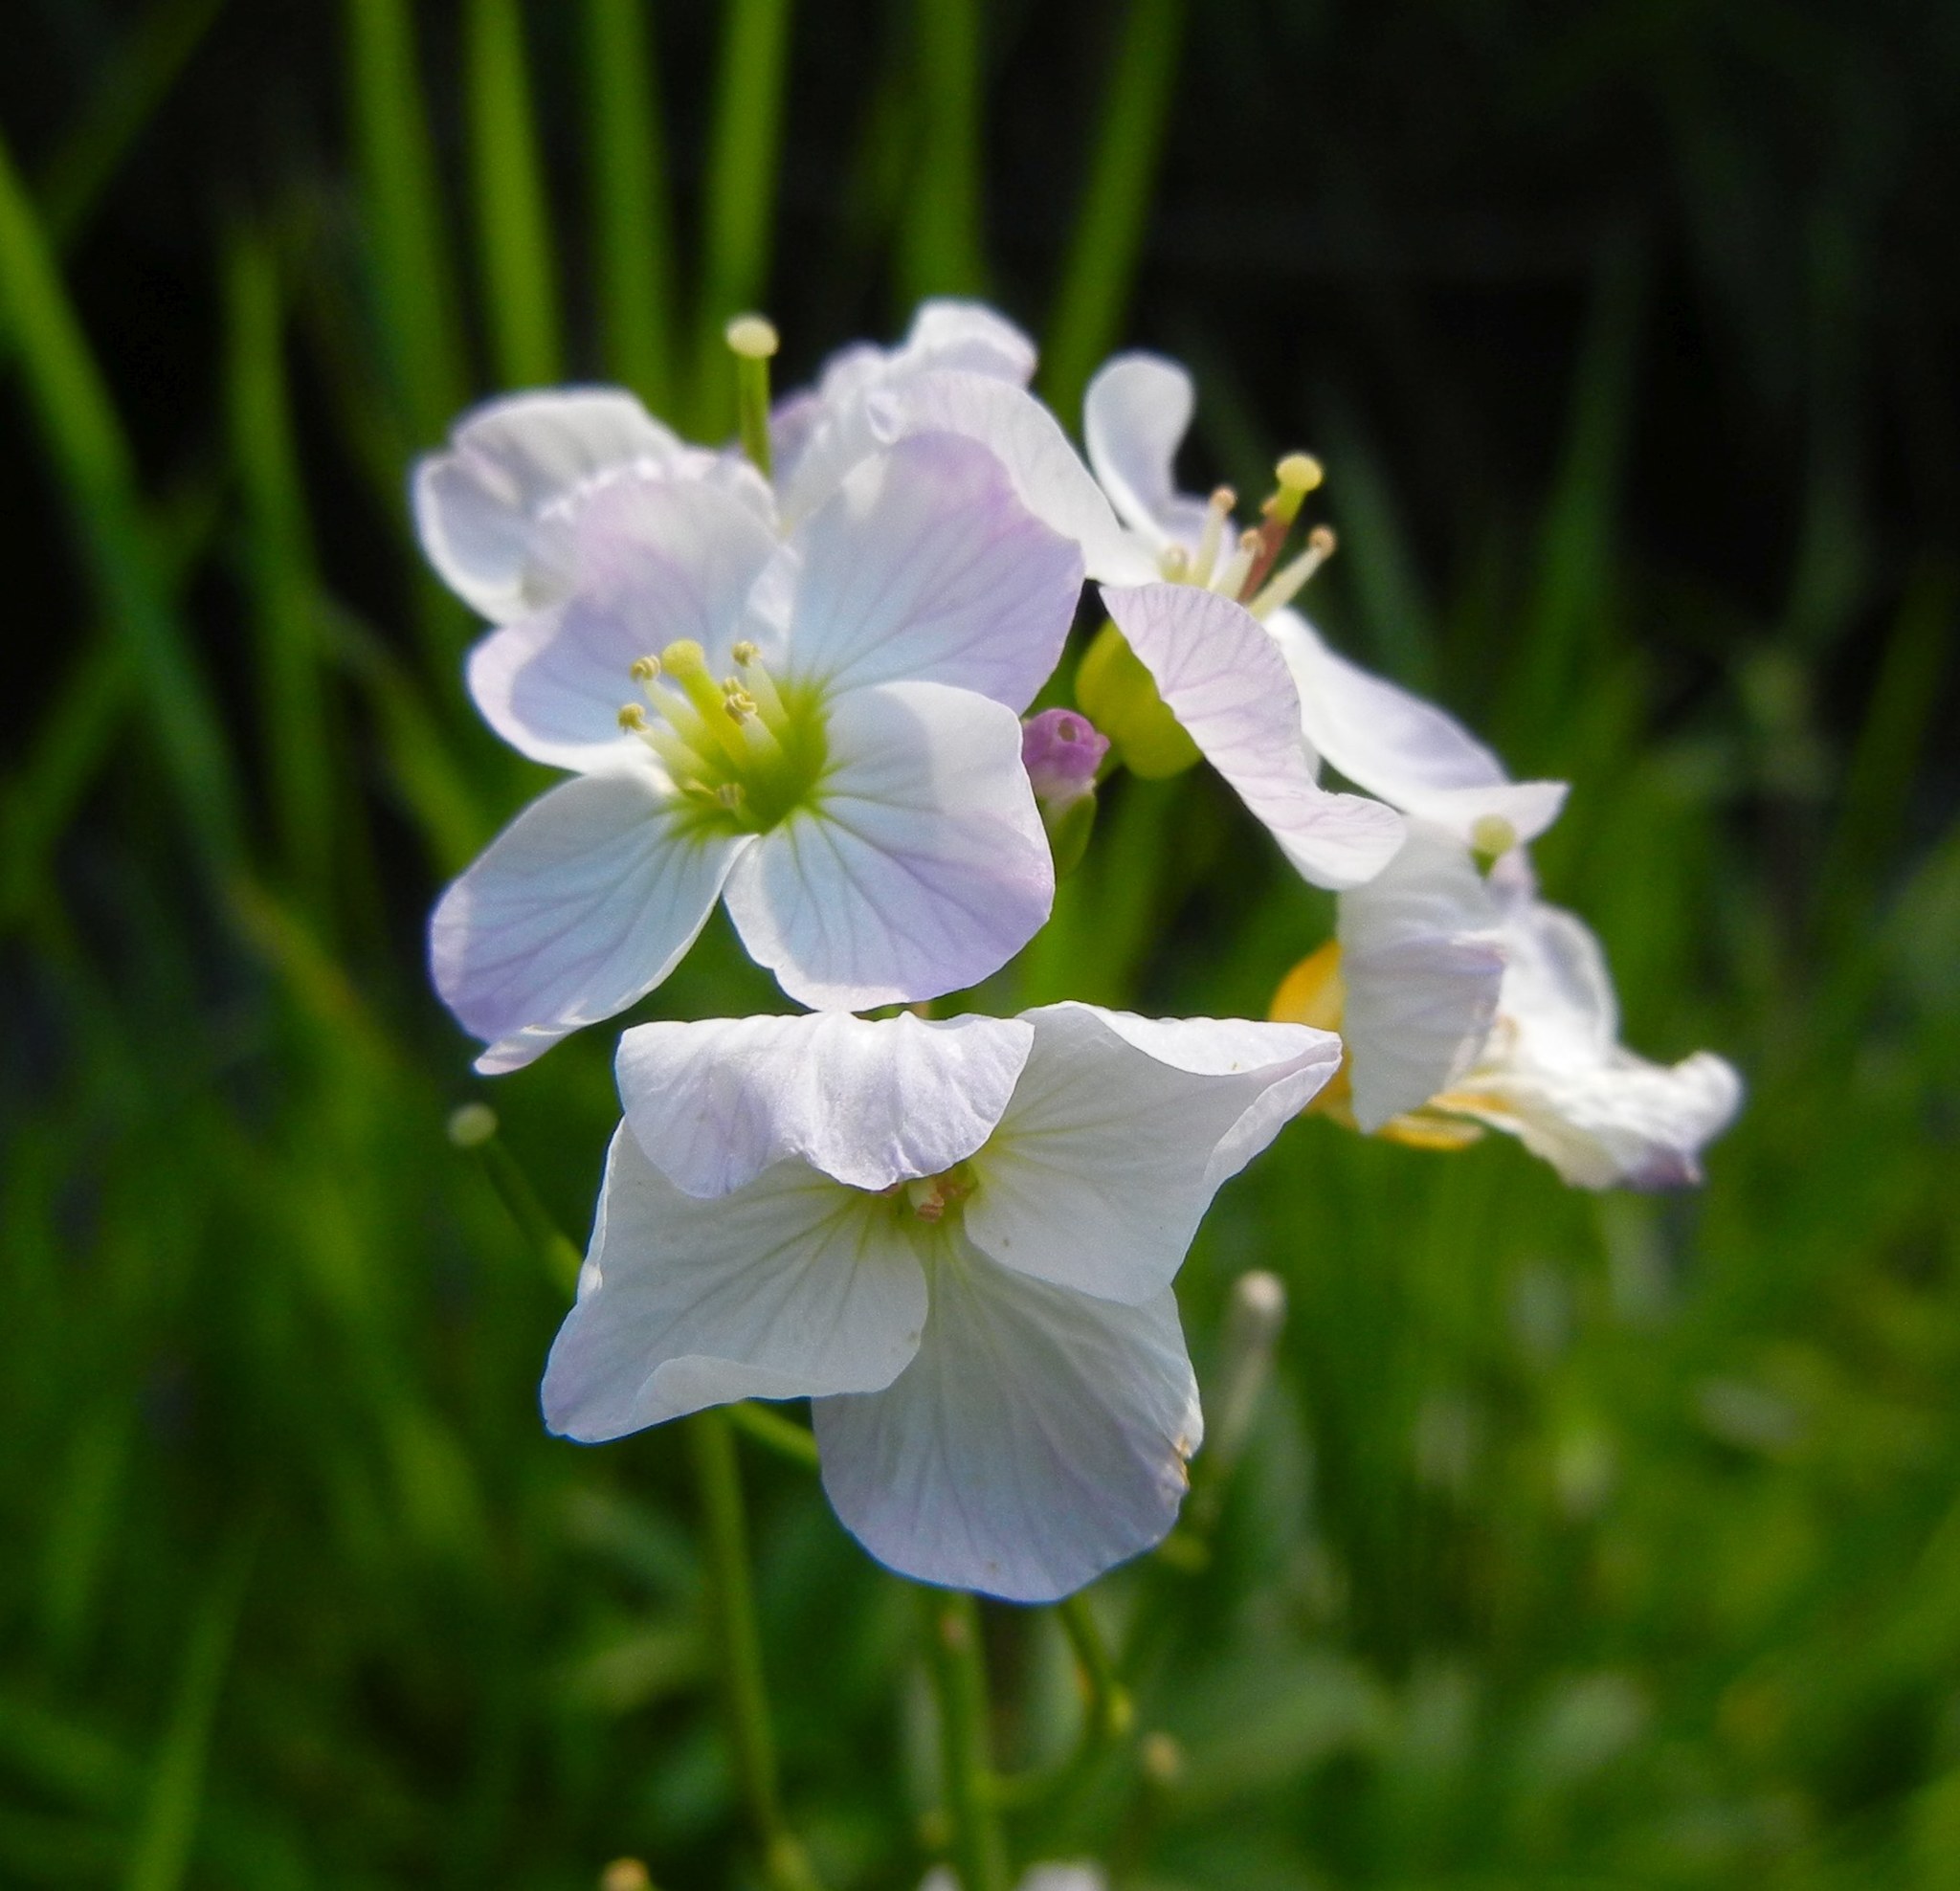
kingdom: Plantae
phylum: Tracheophyta
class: Magnoliopsida
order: Brassicales
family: Brassicaceae
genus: Cardamine
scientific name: Cardamine pratensis
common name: Cuckoo flower
